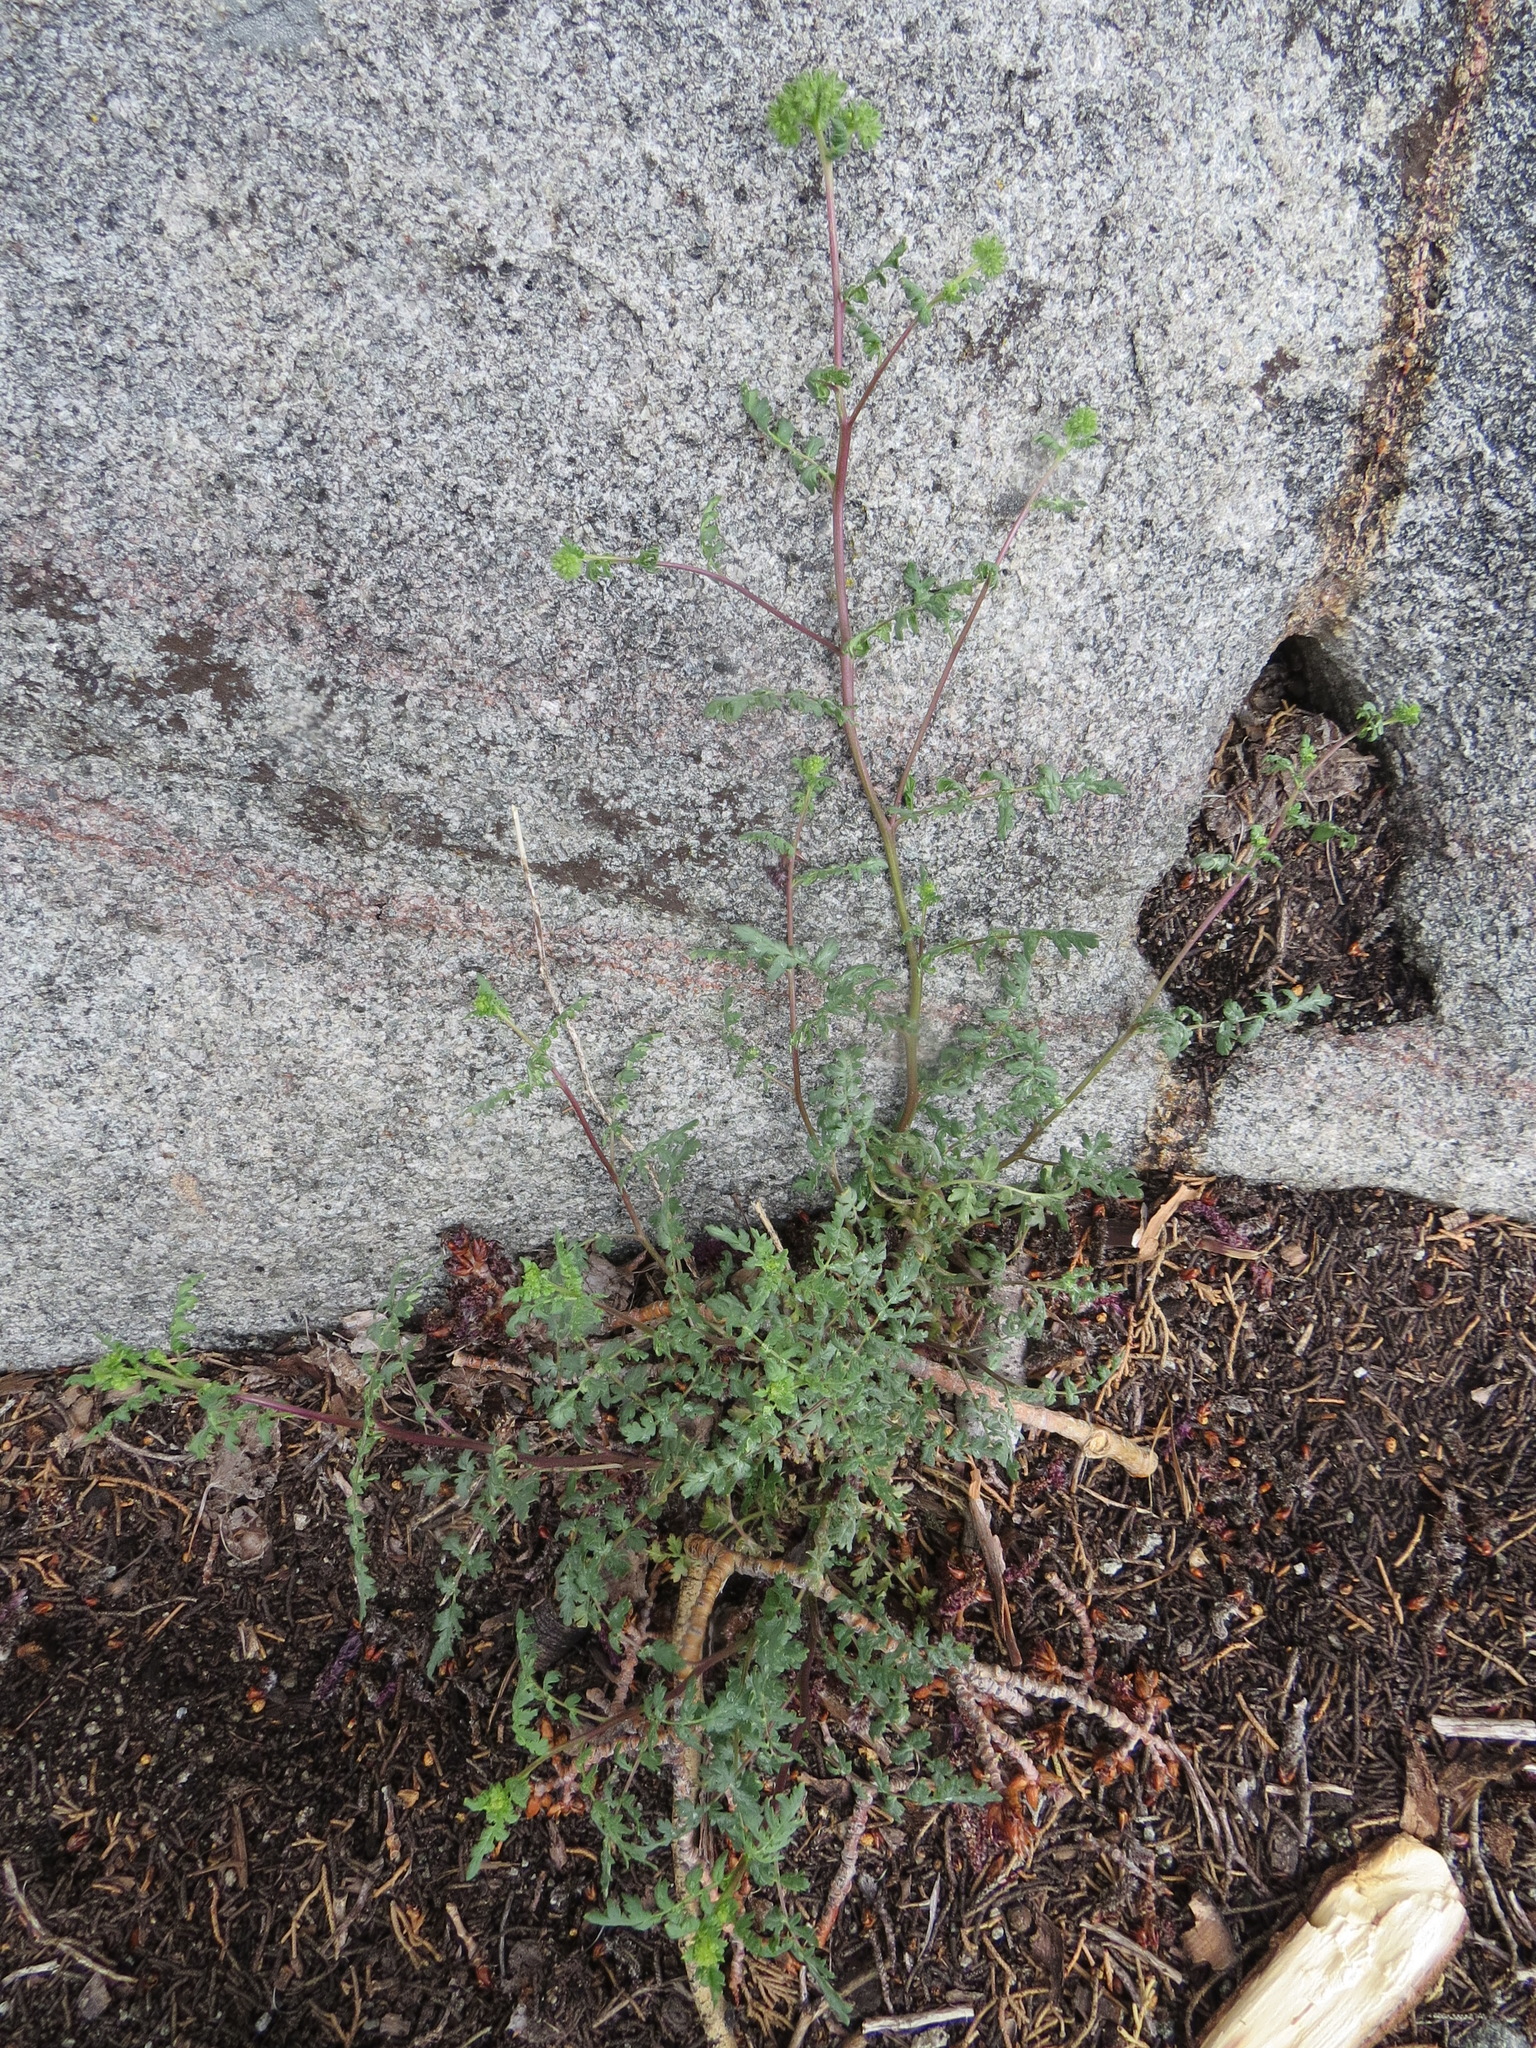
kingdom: Plantae
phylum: Tracheophyta
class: Magnoliopsida
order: Boraginales
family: Hydrophyllaceae
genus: Phacelia
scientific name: Phacelia ramosissima
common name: Branching phacelia
